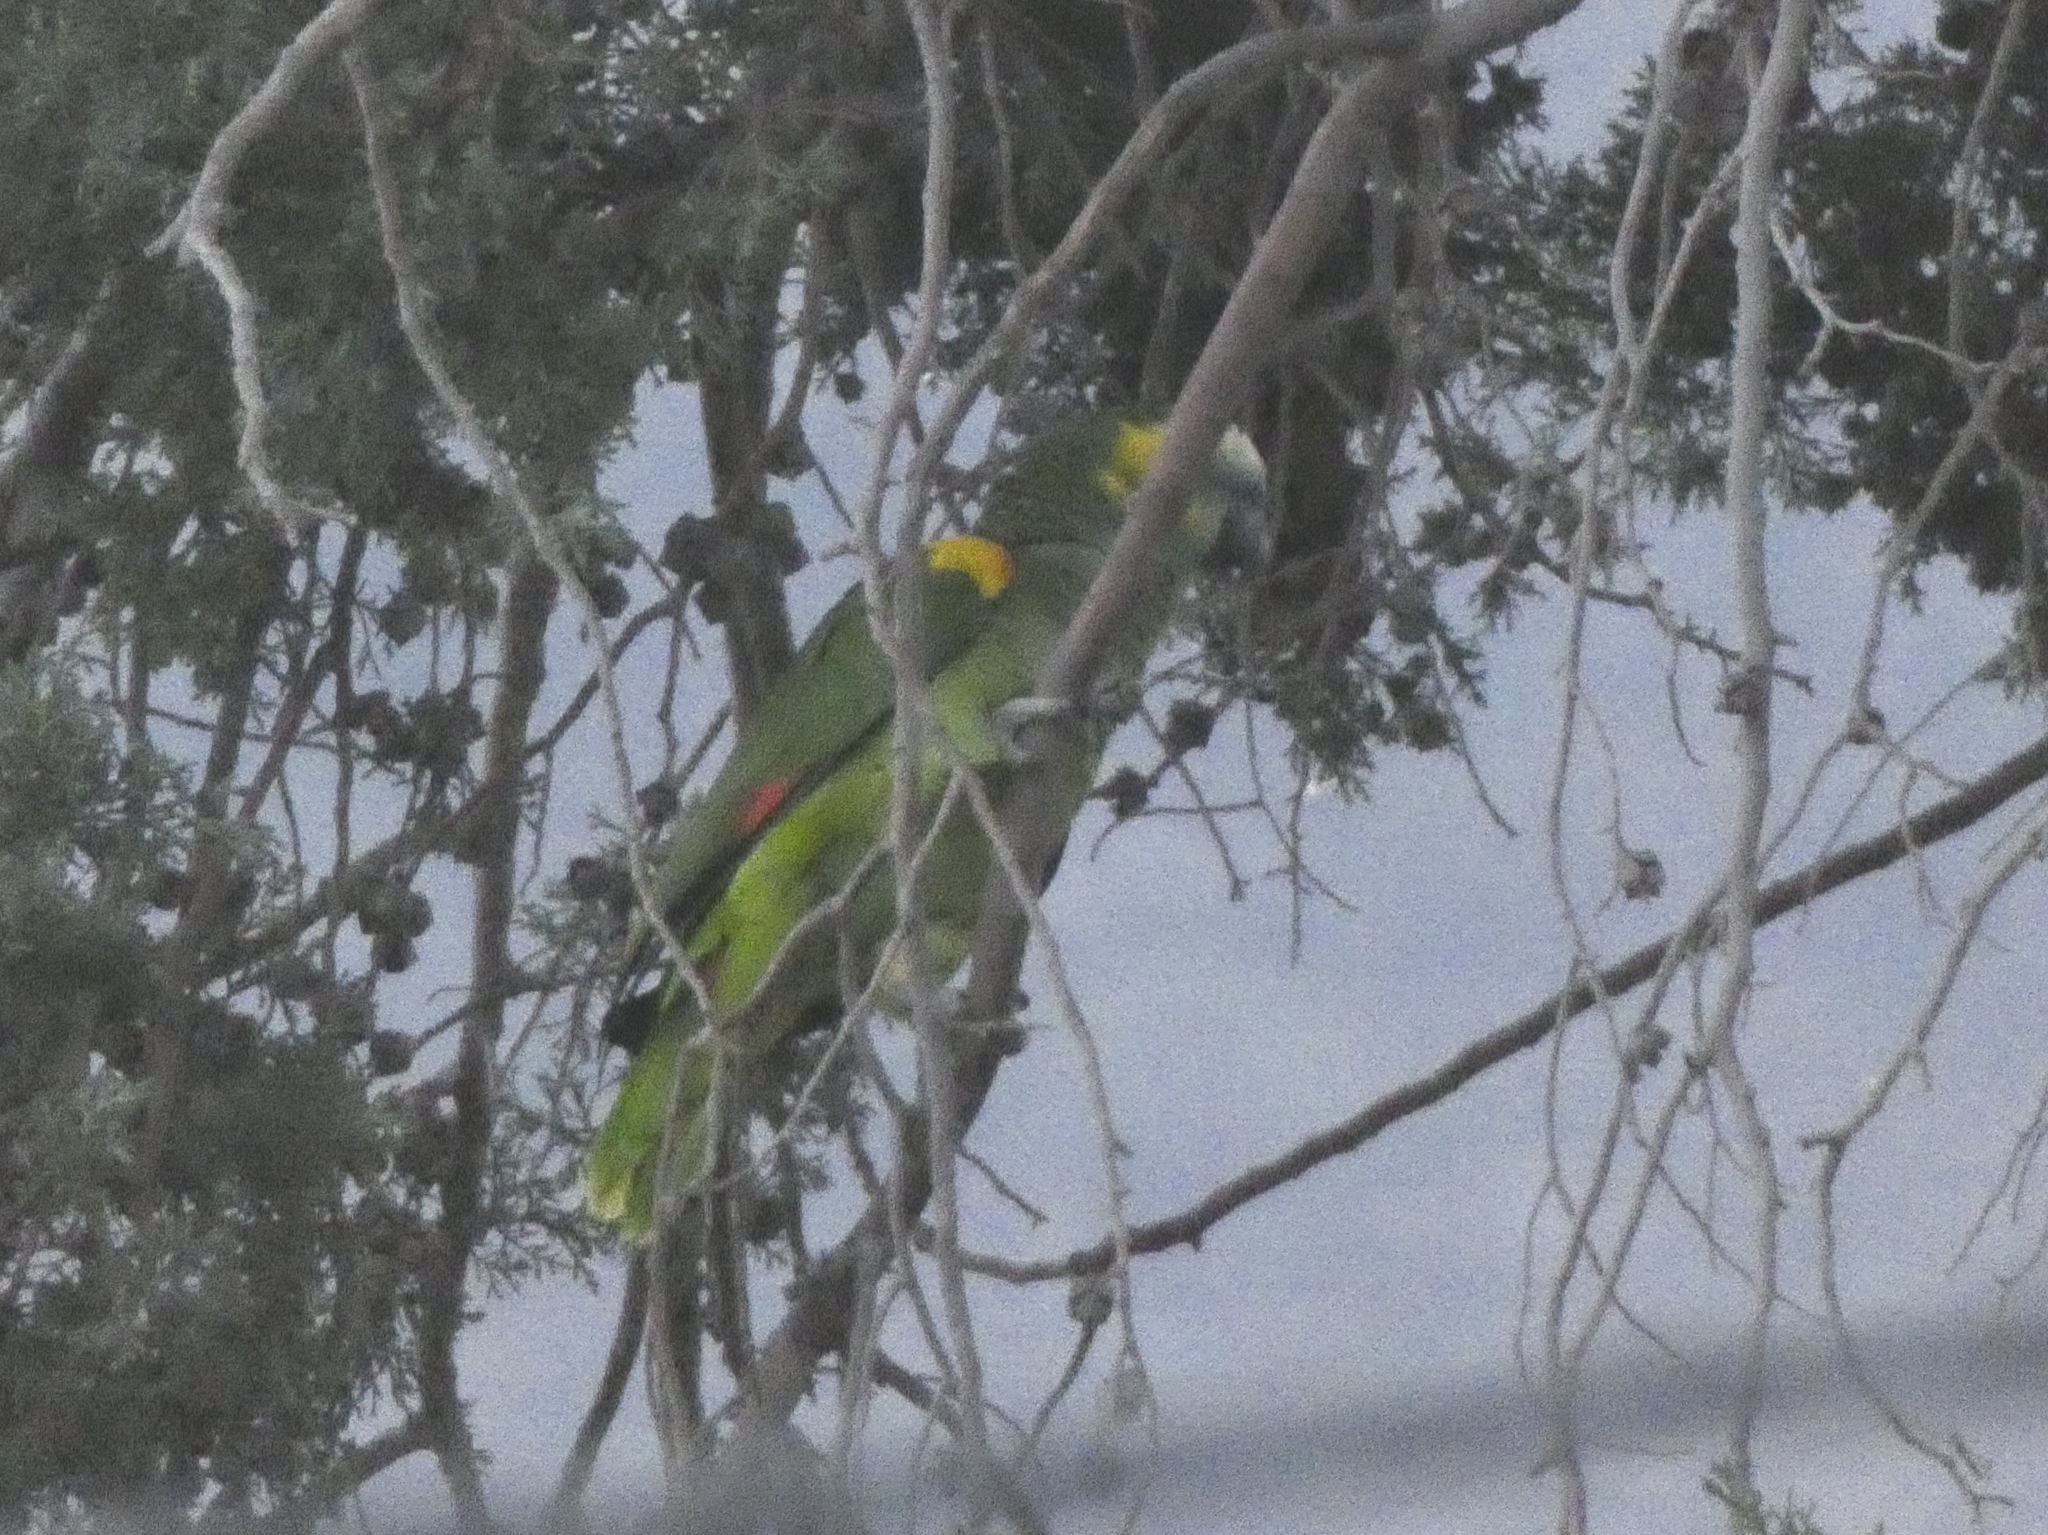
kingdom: Animalia
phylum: Chordata
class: Aves
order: Psittaciformes
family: Psittacidae
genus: Amazona
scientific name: Amazona aestiva
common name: Turquoise-fronted amazon
